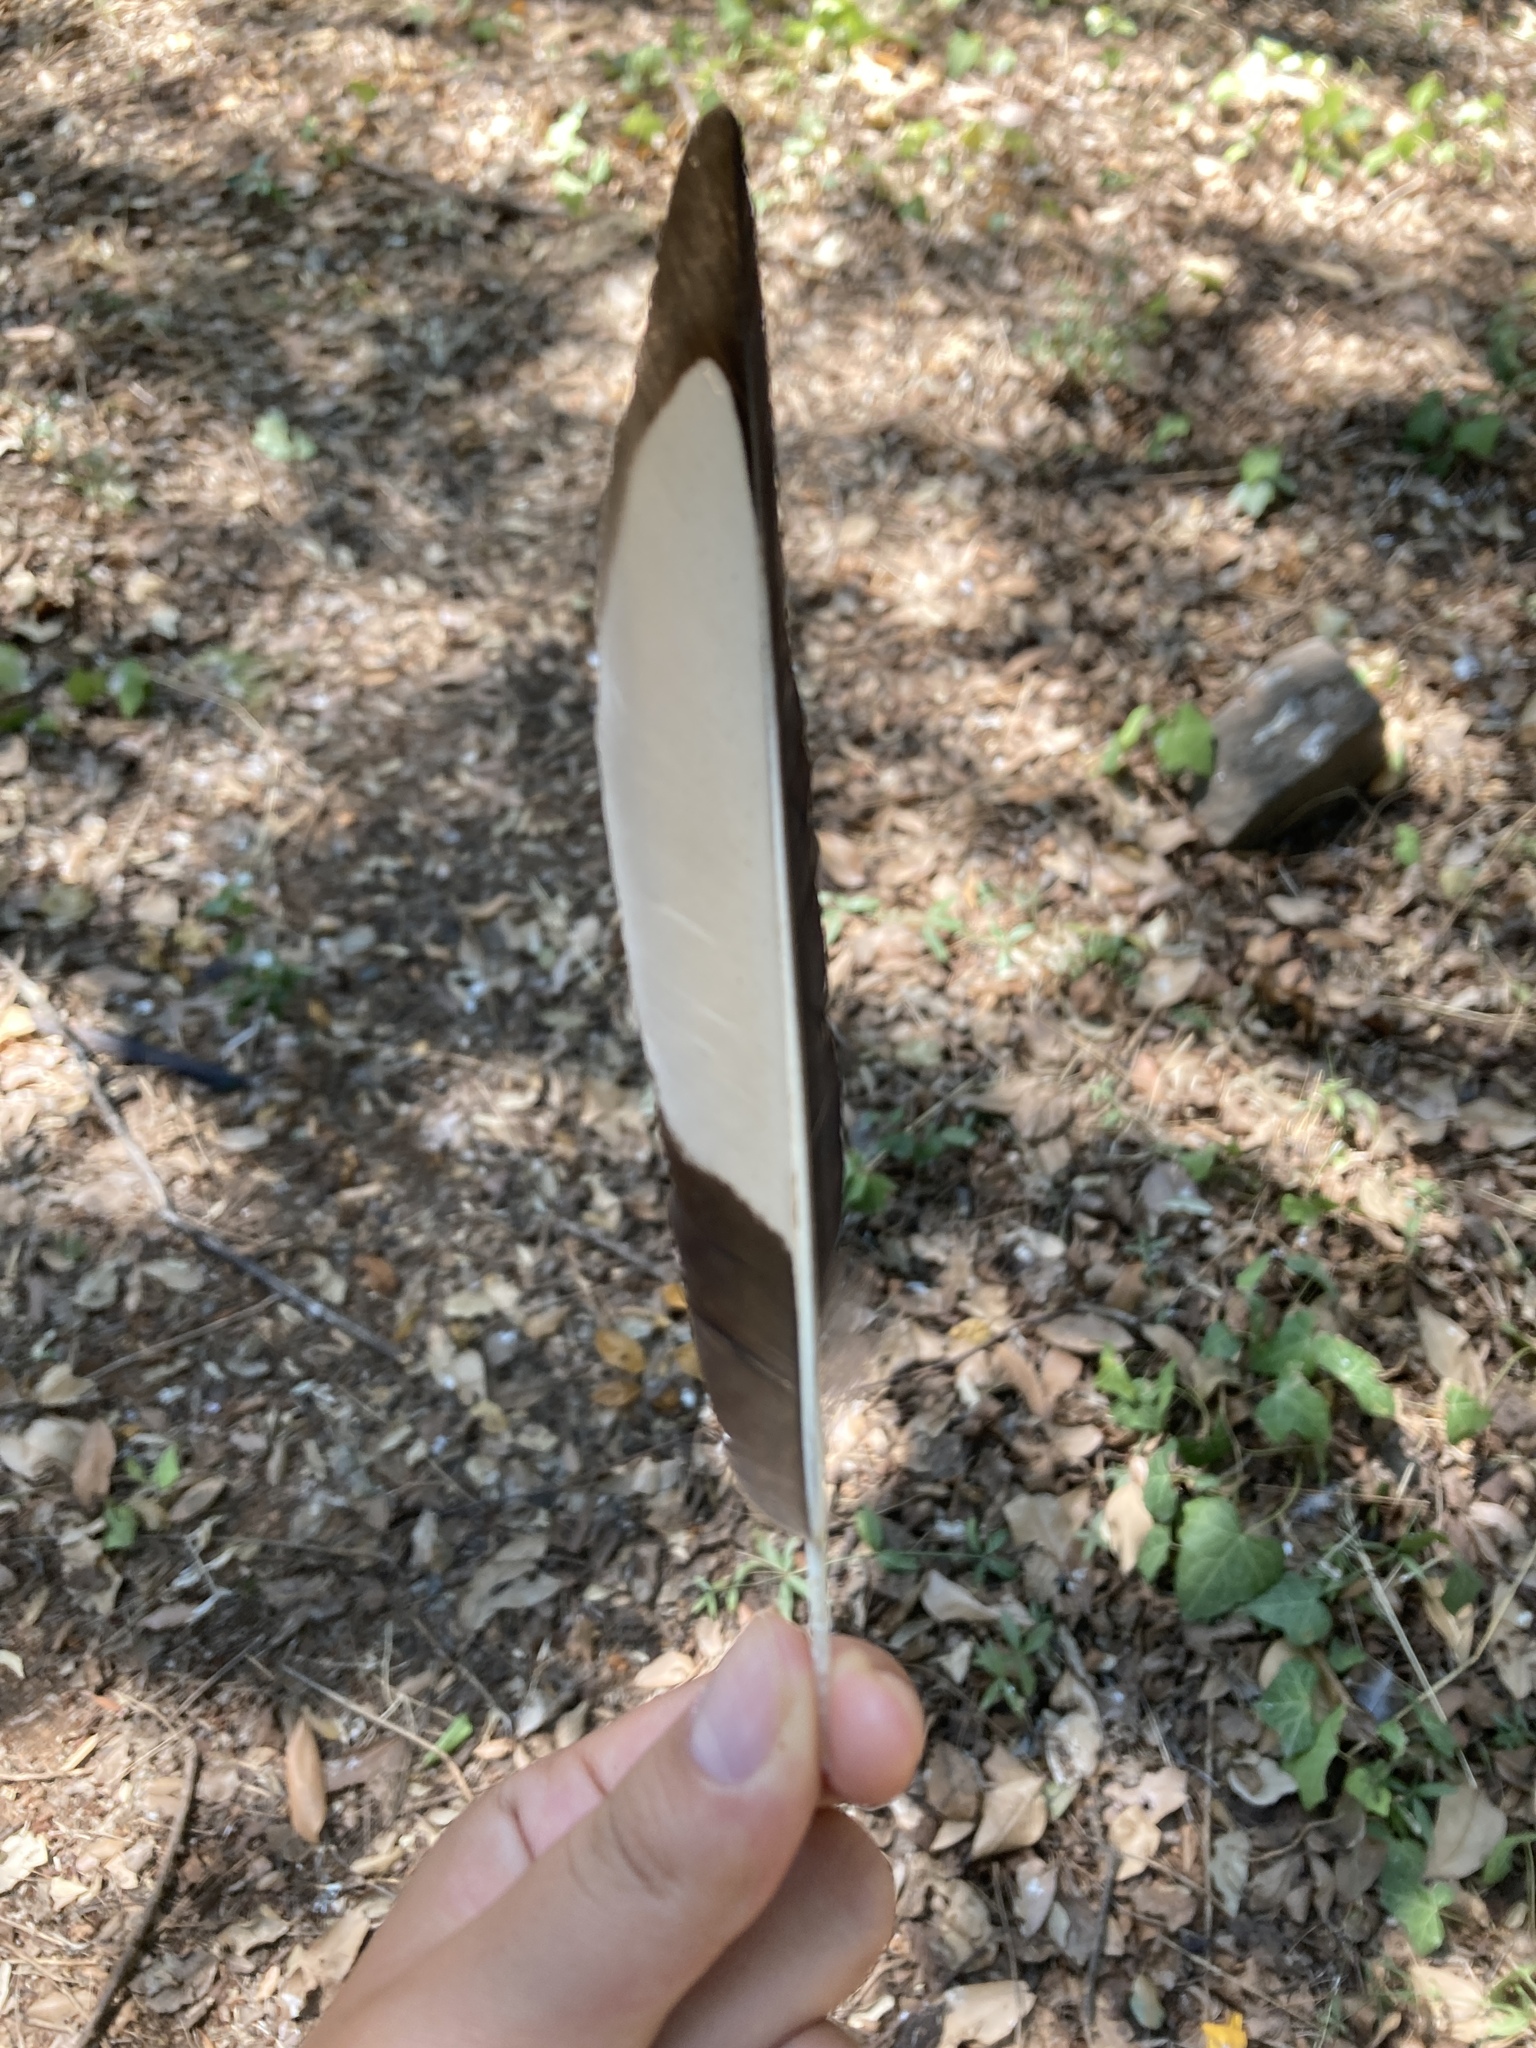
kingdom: Animalia
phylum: Chordata
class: Aves
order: Passeriformes
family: Corvidae
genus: Pica
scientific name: Pica pica
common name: Eurasian magpie
